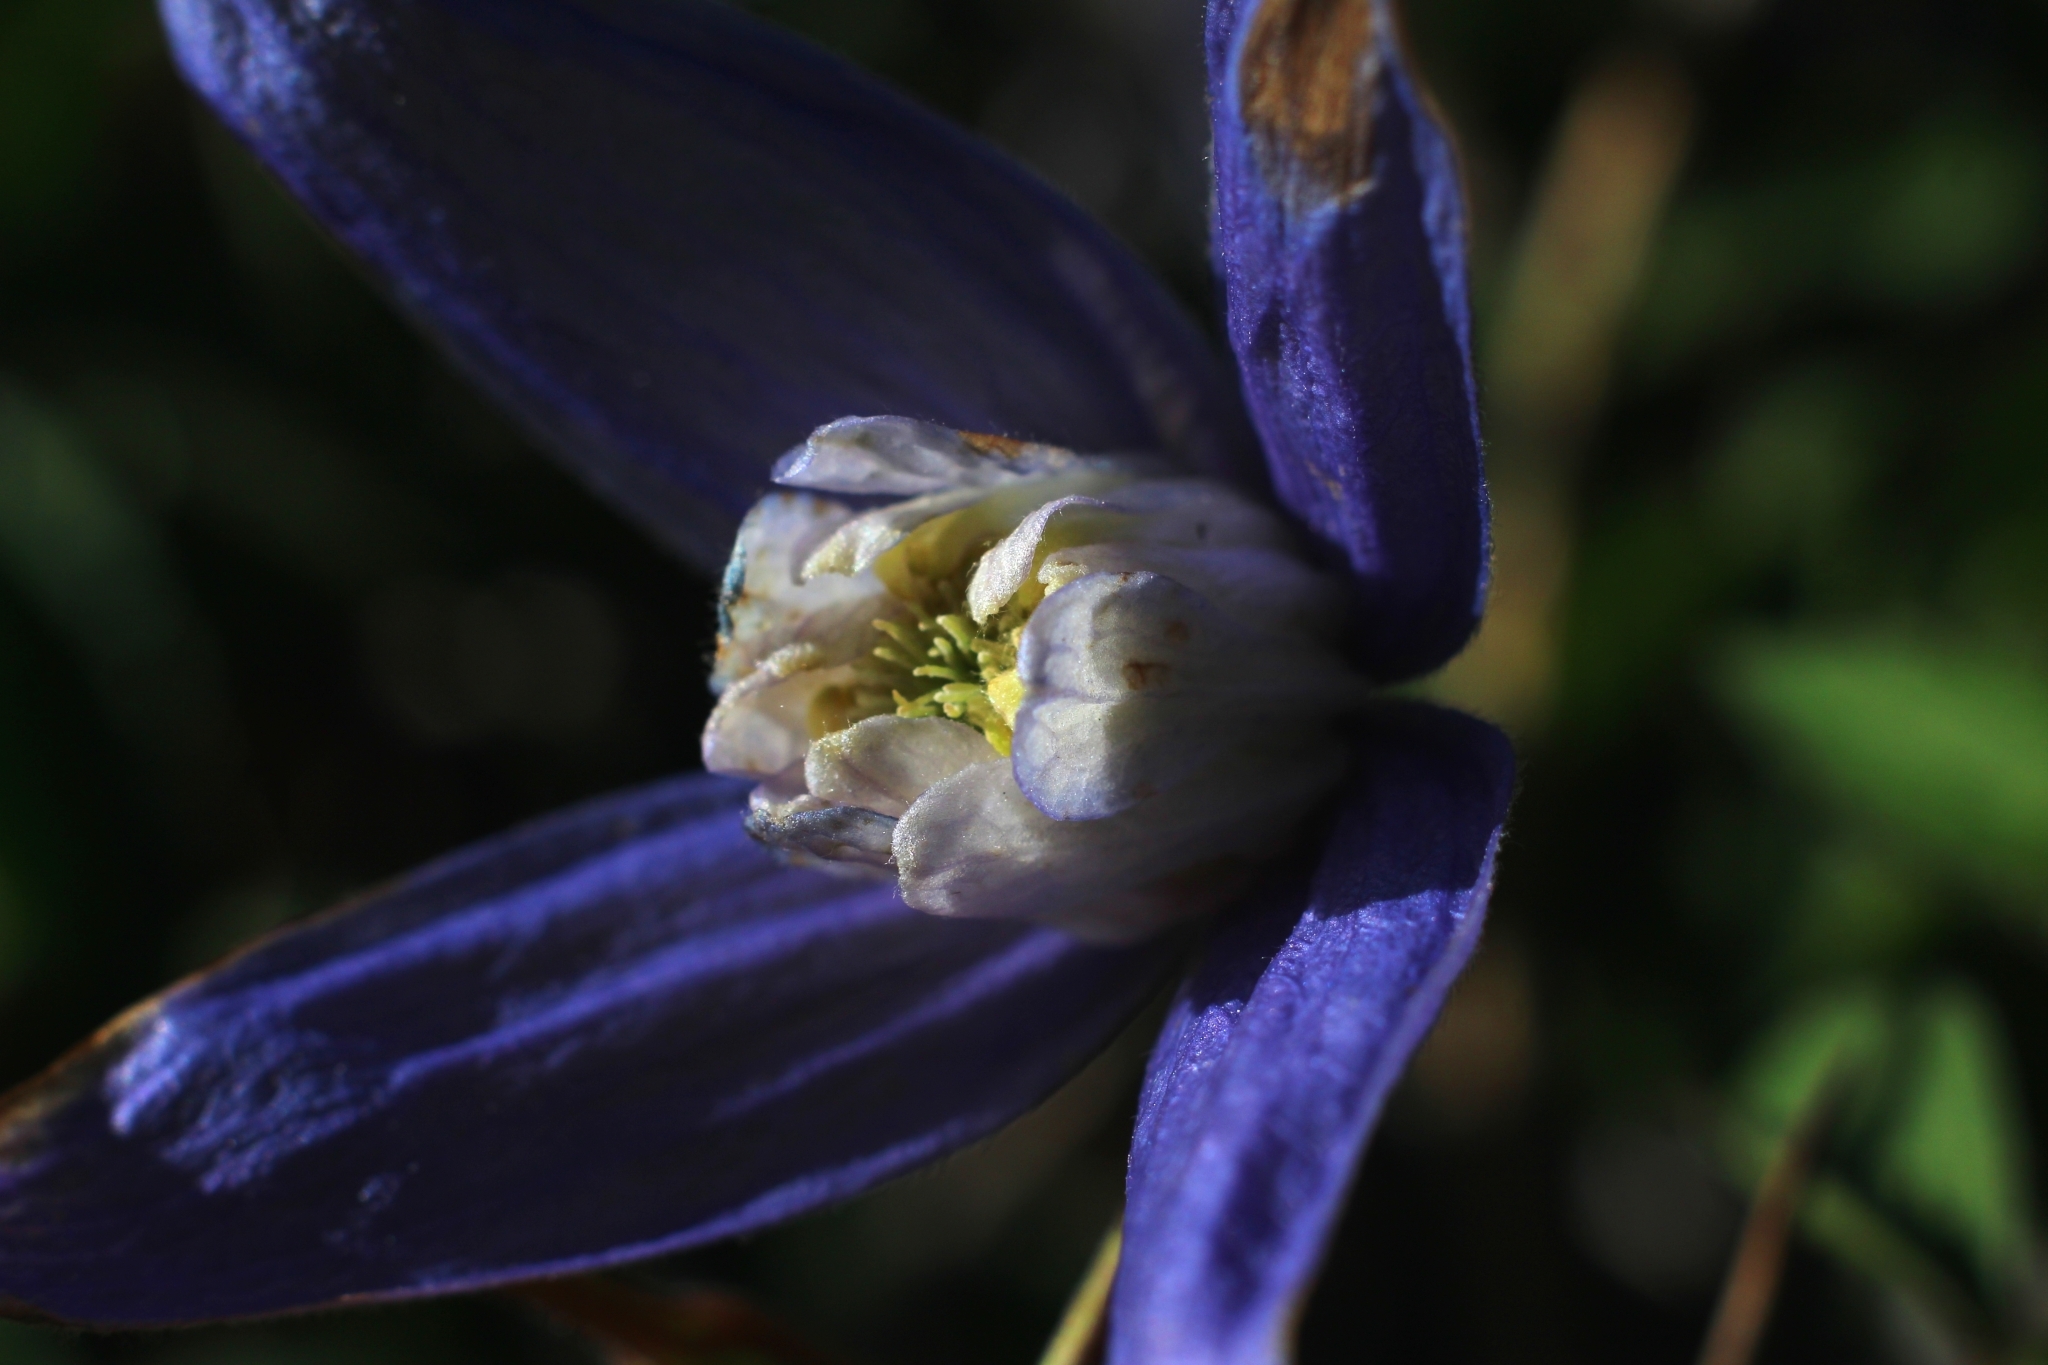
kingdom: Plantae
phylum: Tracheophyta
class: Magnoliopsida
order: Ranunculales
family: Ranunculaceae
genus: Clematis
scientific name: Clematis alpina
